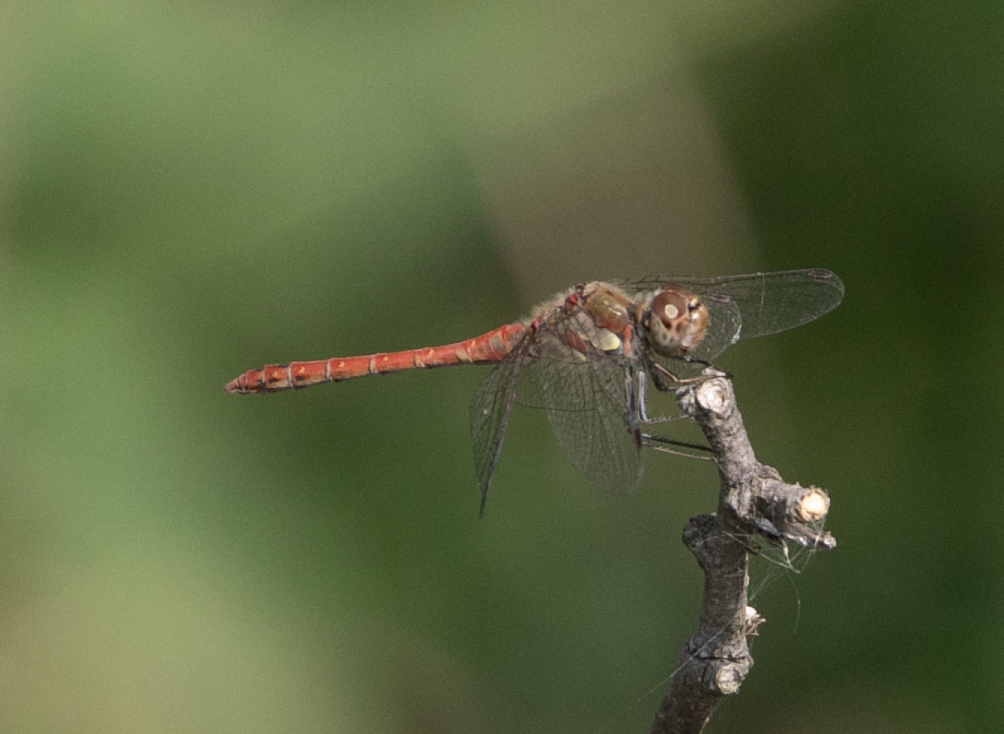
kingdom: Animalia
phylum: Arthropoda
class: Insecta
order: Odonata
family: Libellulidae
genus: Sympetrum
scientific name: Sympetrum striolatum
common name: Common darter
